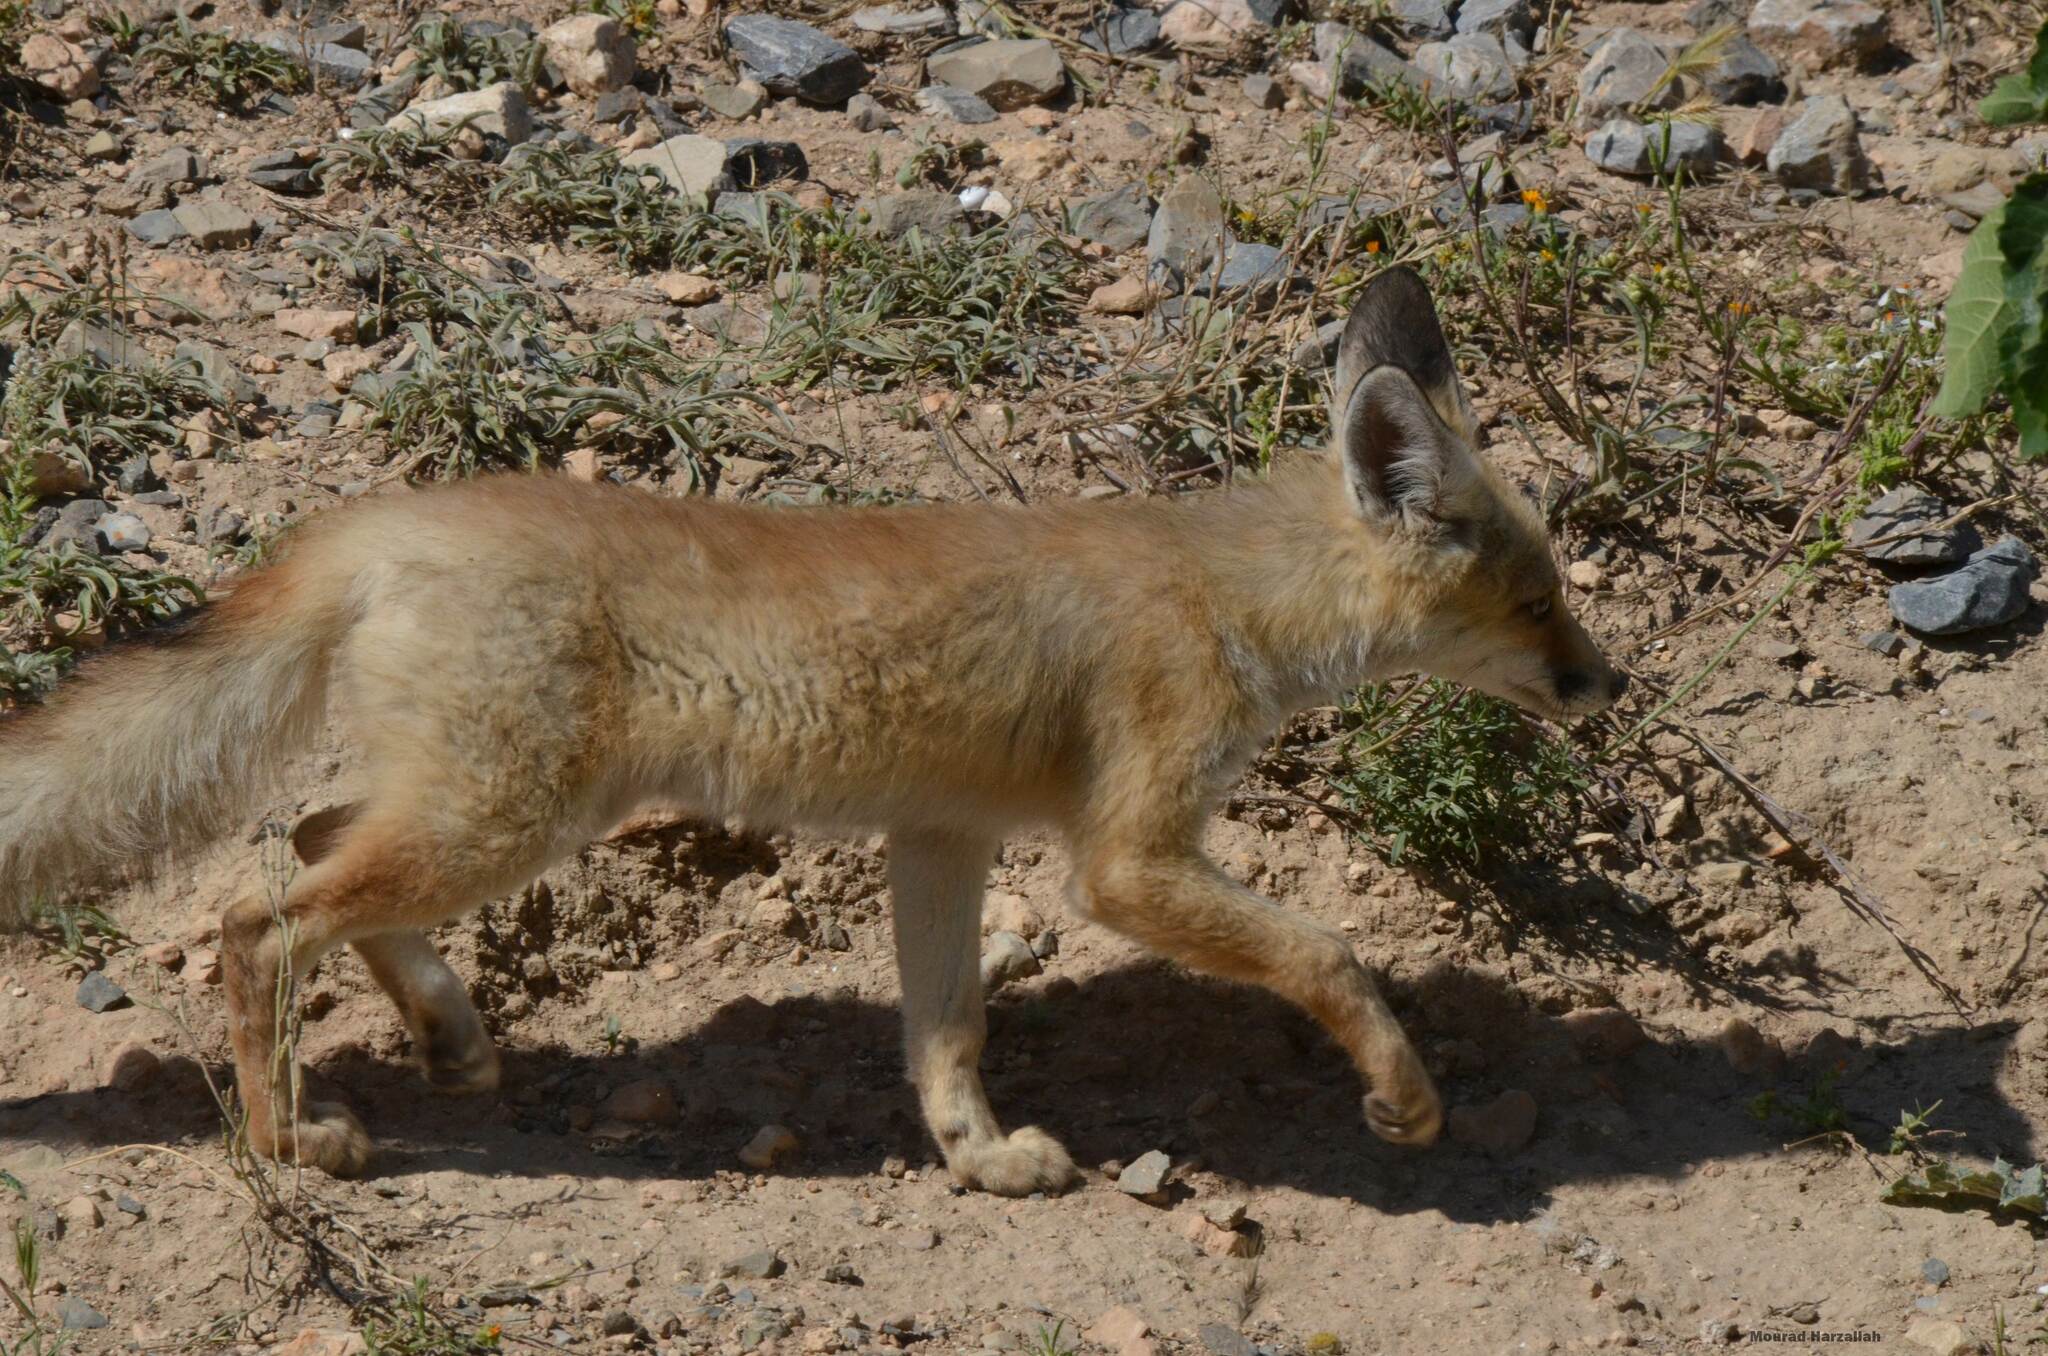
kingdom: Animalia
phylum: Chordata
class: Mammalia
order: Carnivora
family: Canidae
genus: Vulpes
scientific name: Vulpes vulpes
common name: Red fox
